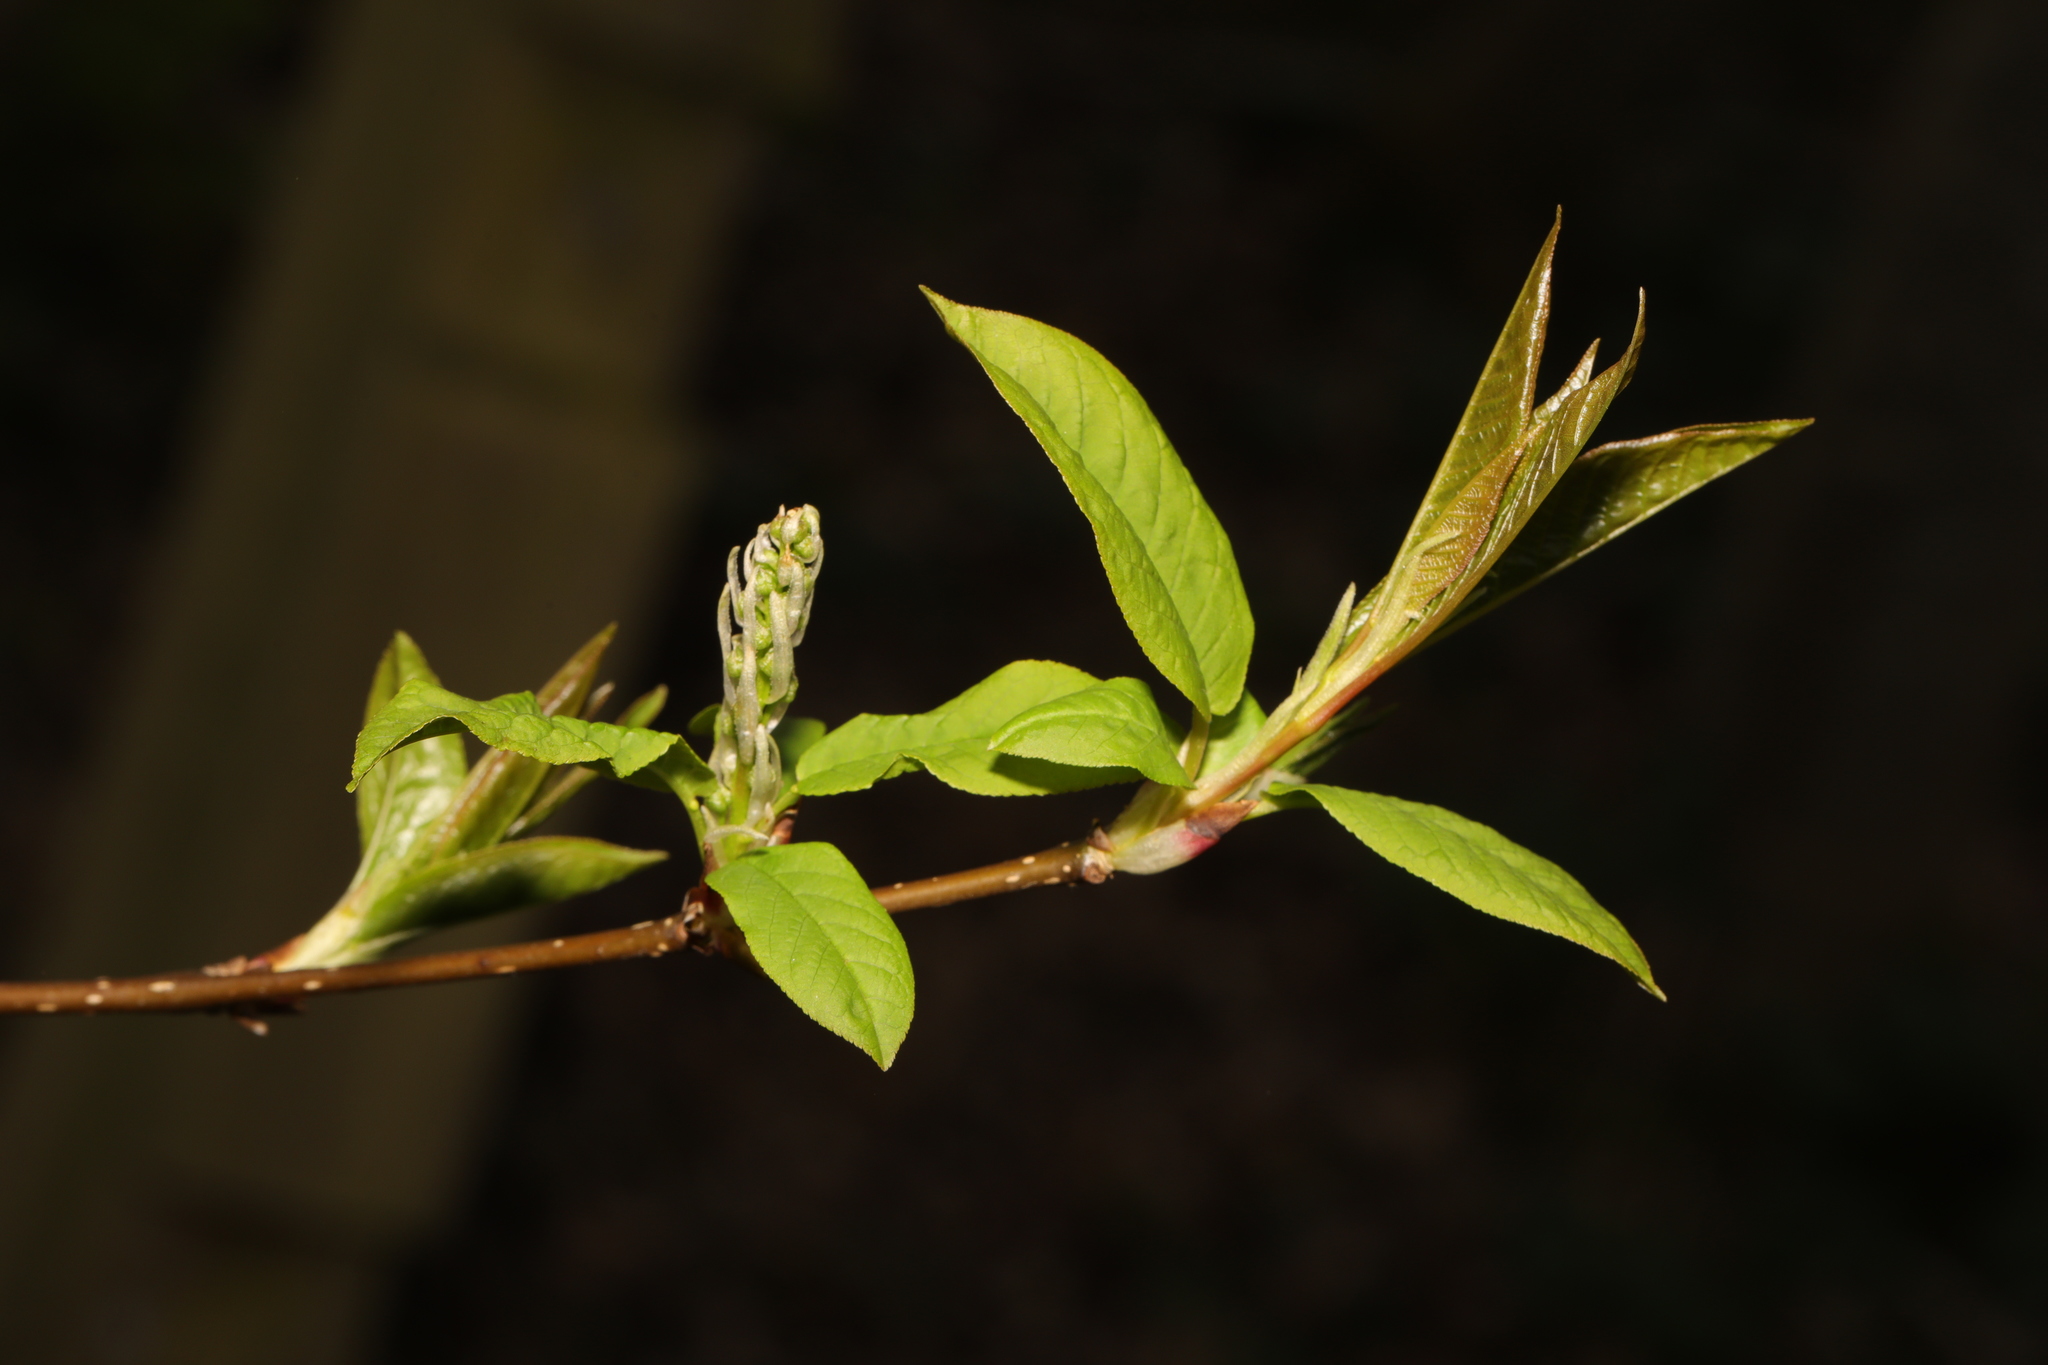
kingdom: Plantae
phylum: Tracheophyta
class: Magnoliopsida
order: Rosales
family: Rosaceae
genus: Prunus
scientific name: Prunus padus
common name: Bird cherry
